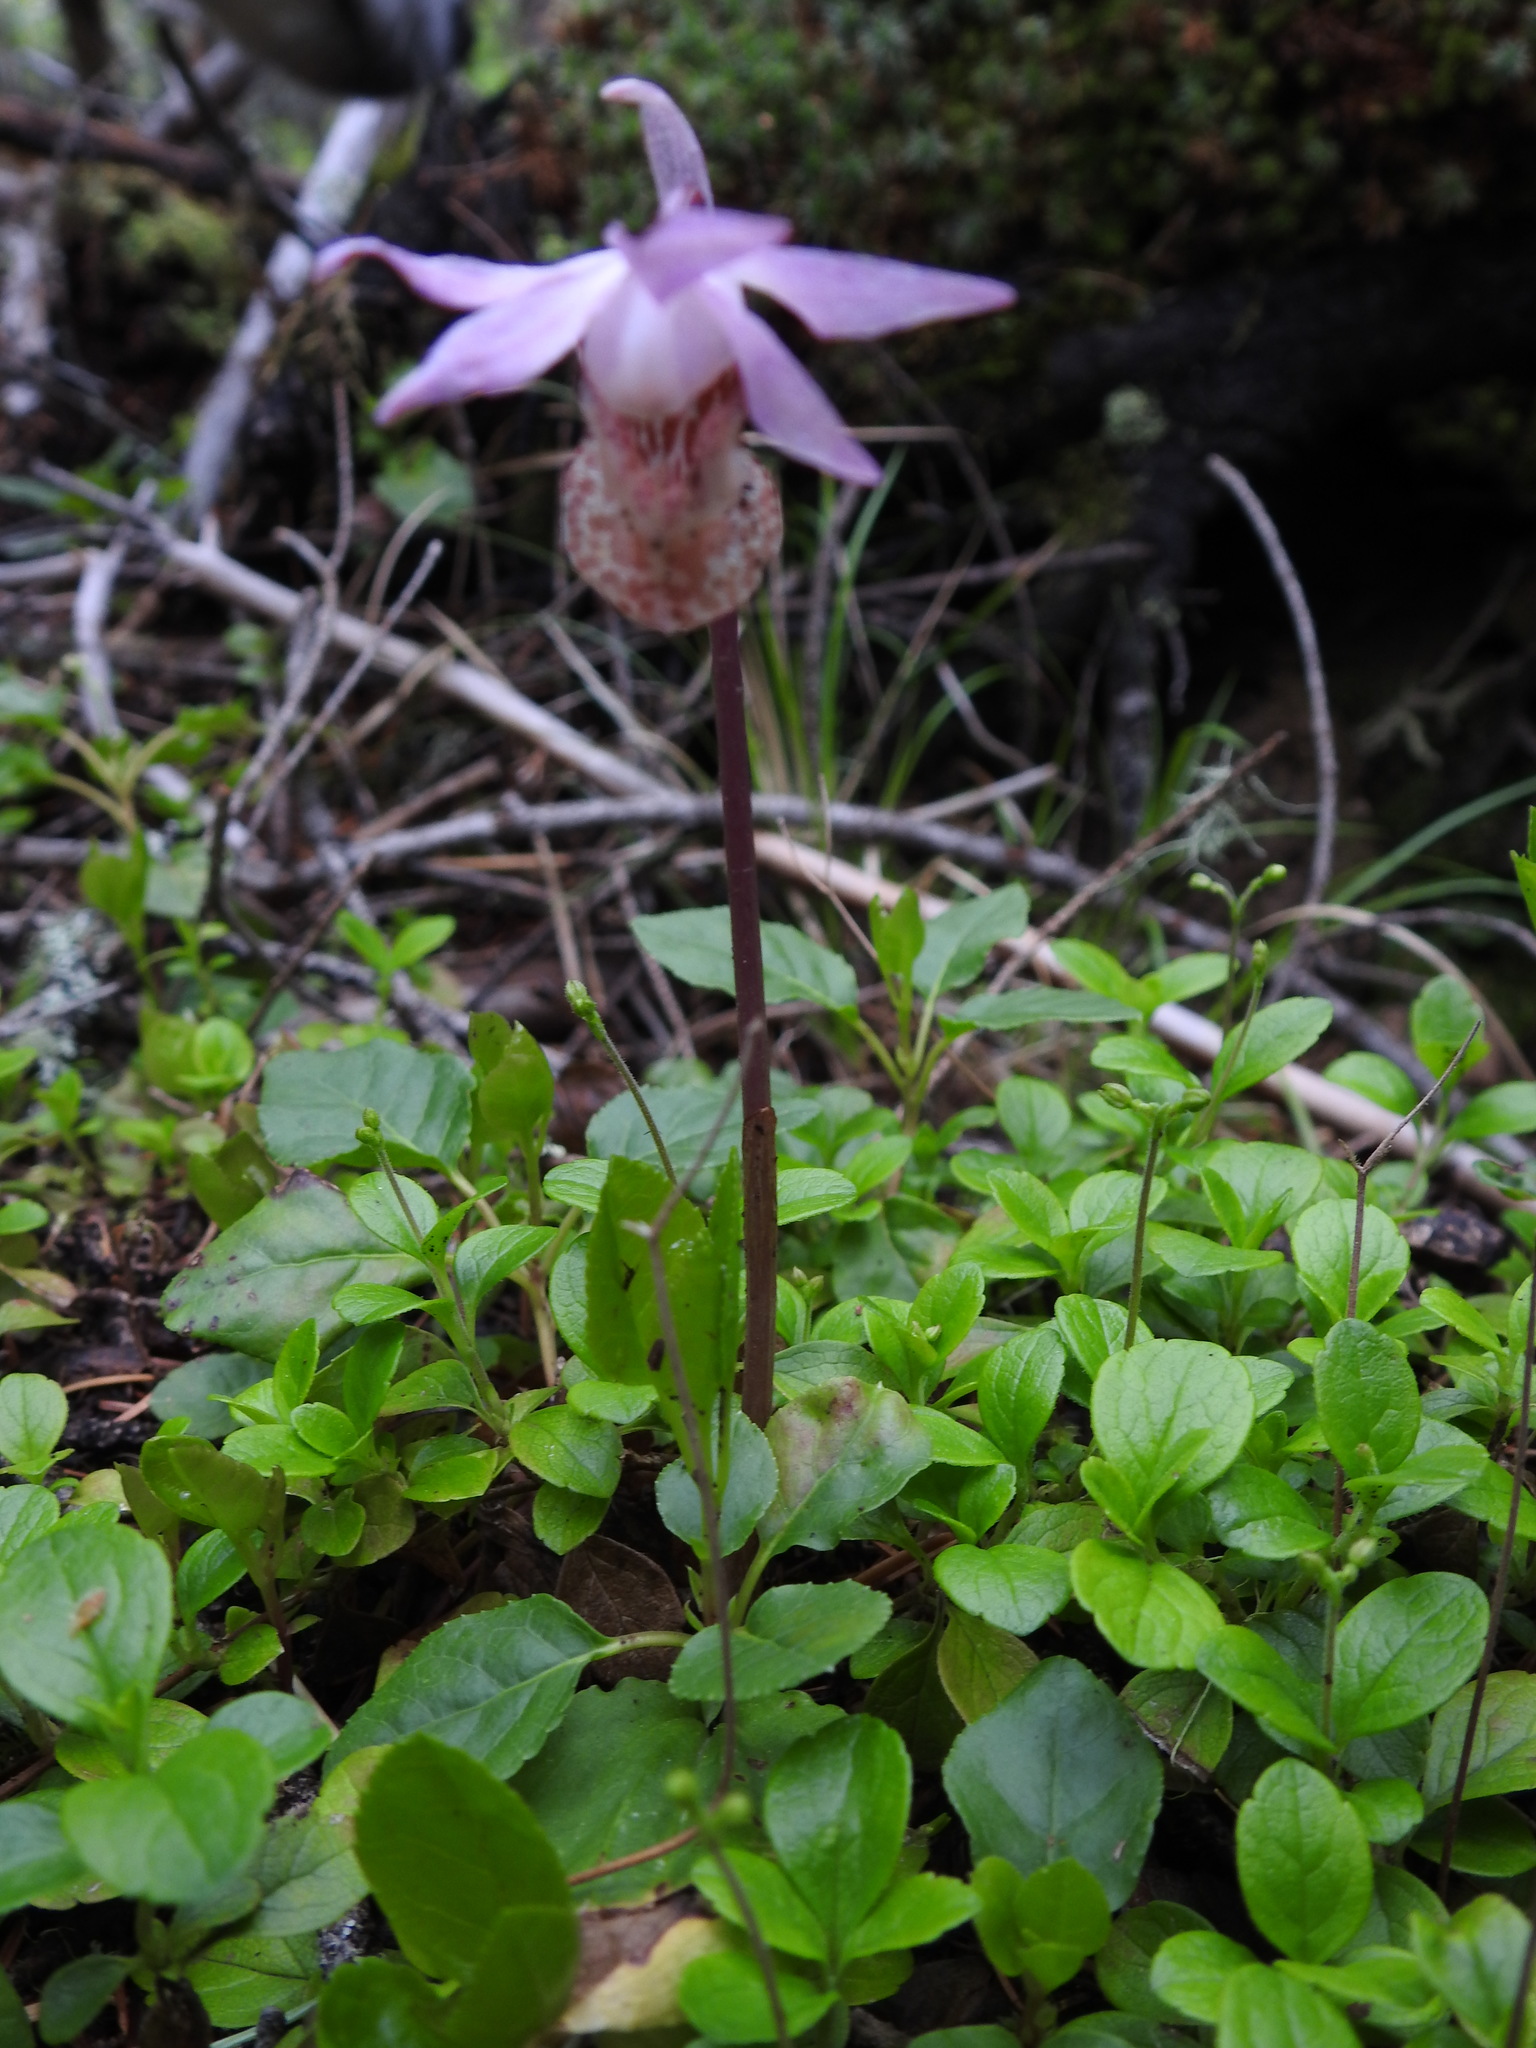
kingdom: Plantae
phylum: Tracheophyta
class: Liliopsida
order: Asparagales
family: Orchidaceae
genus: Calypso
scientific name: Calypso bulbosa
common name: Calypso
